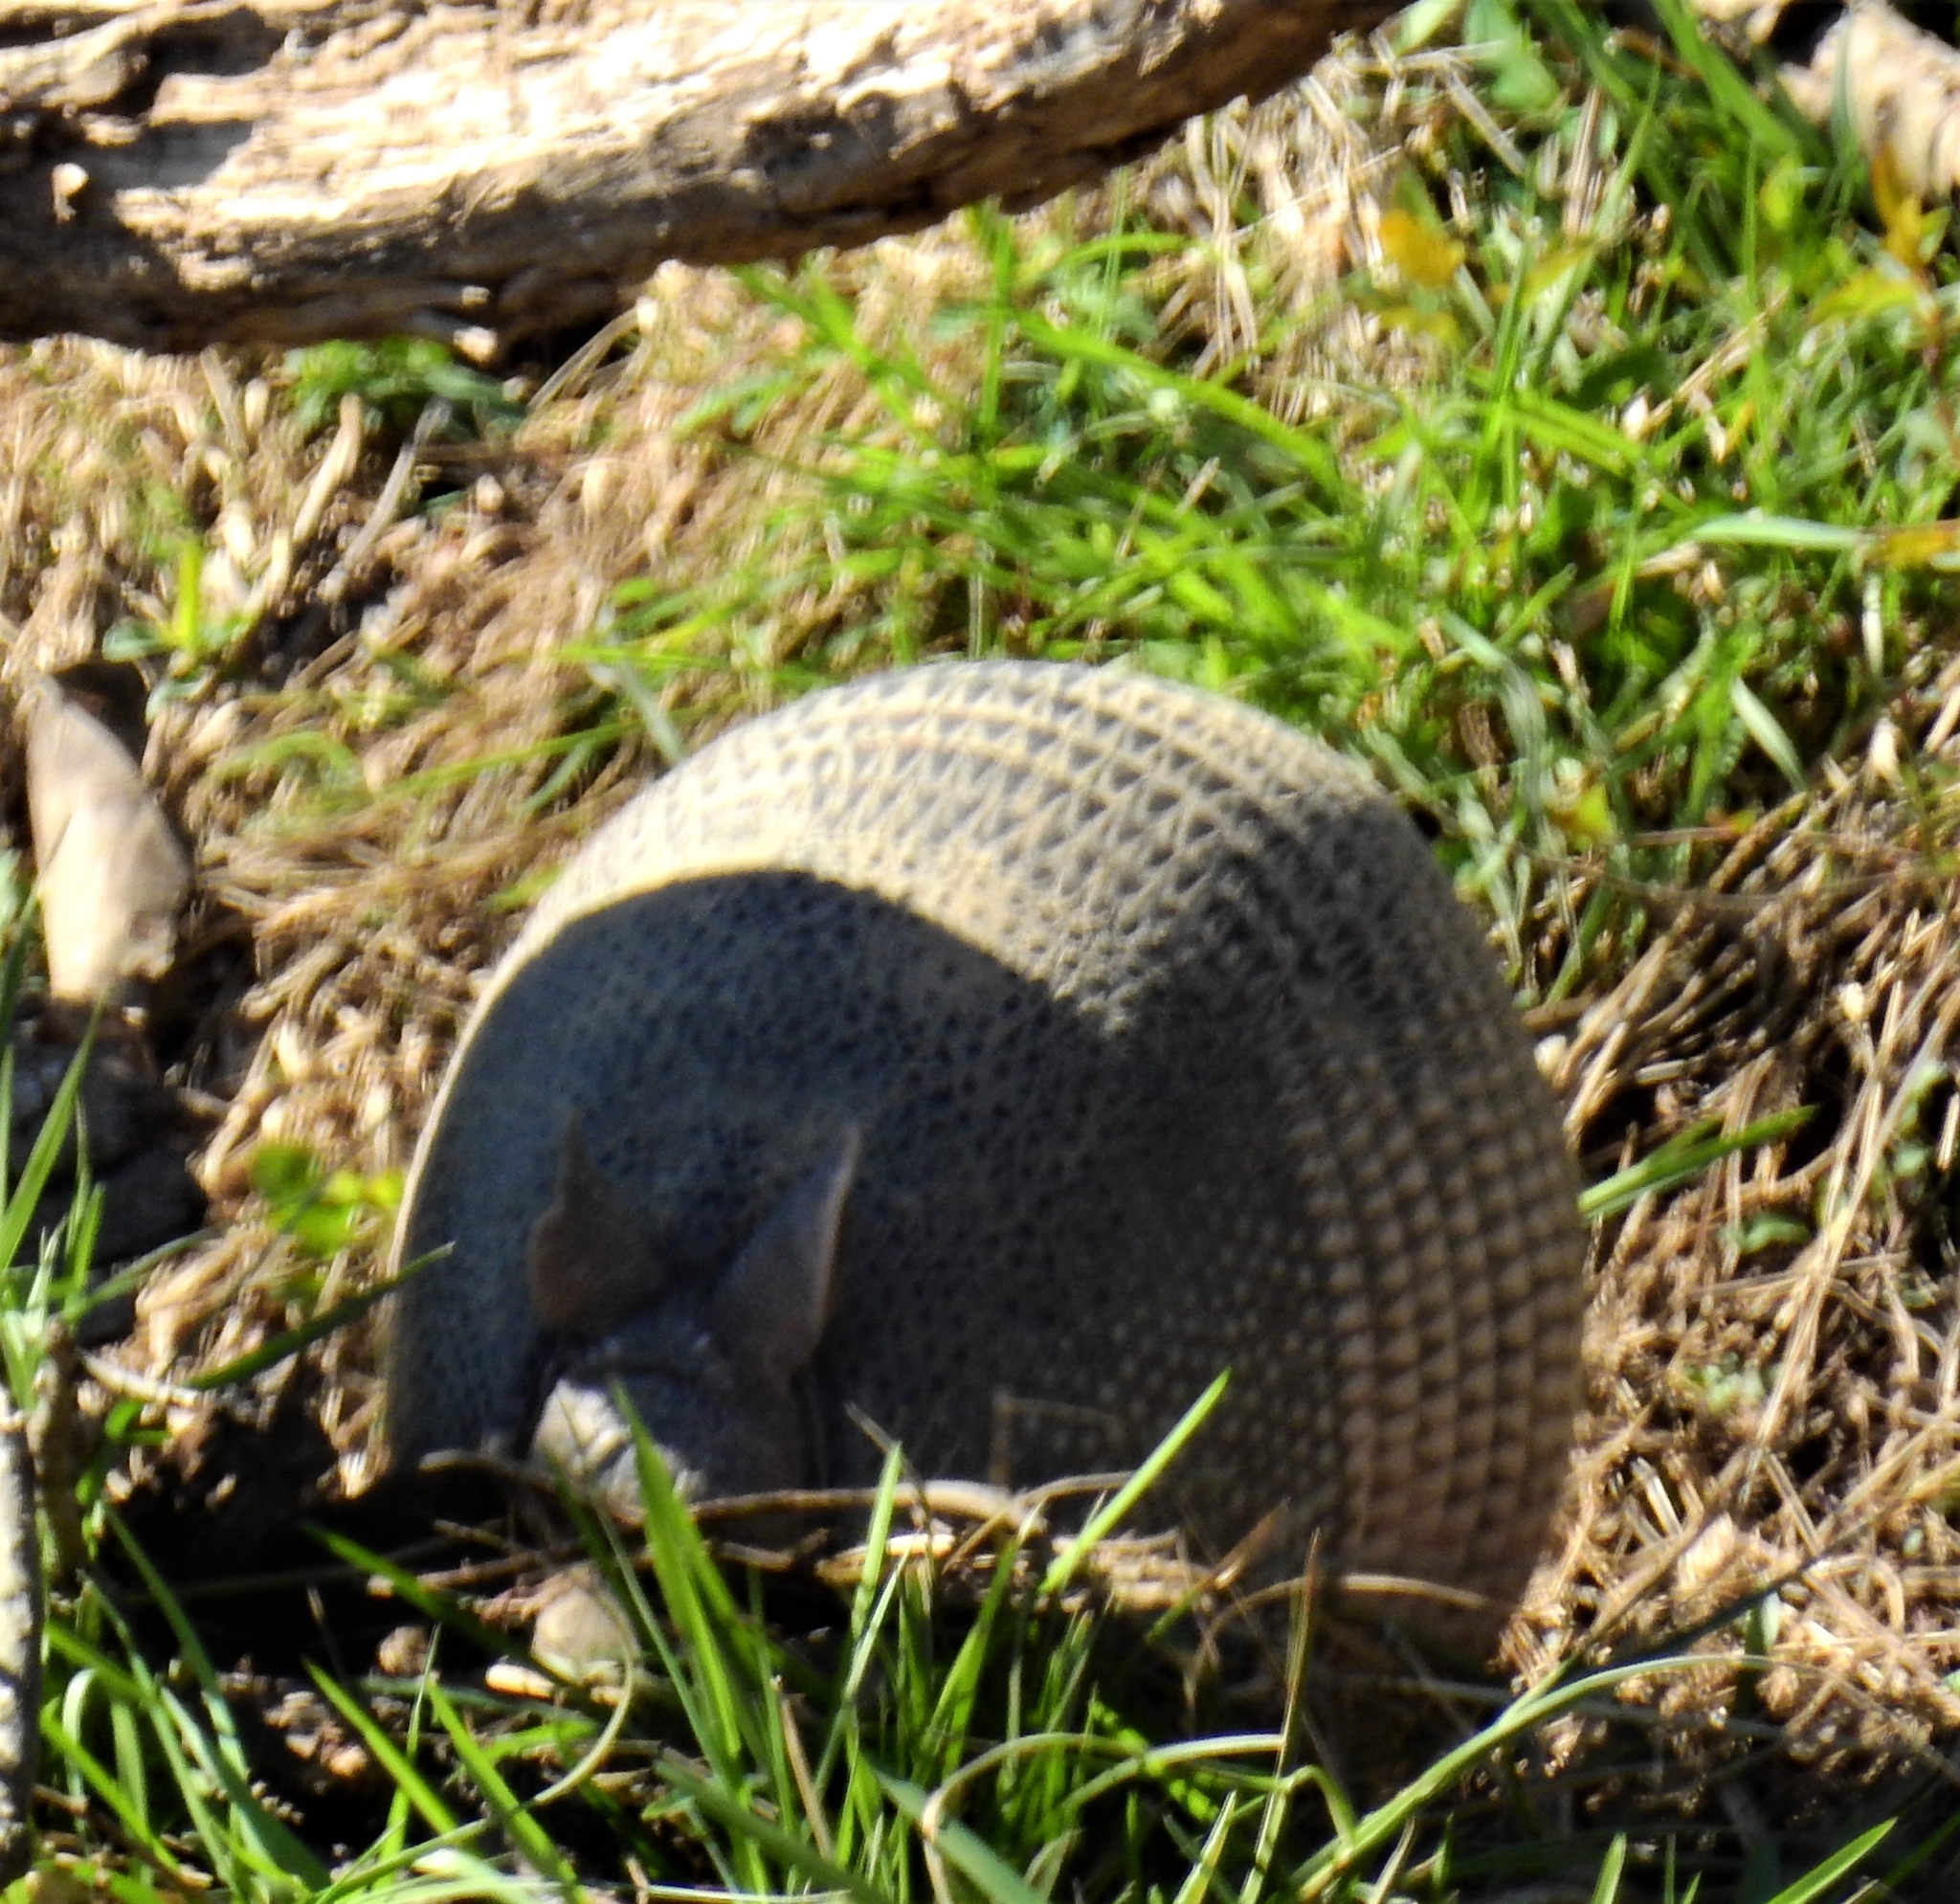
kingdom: Animalia
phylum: Chordata
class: Mammalia
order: Cingulata
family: Dasypodidae
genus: Dasypus
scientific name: Dasypus novemcinctus
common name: Nine-banded armadillo
